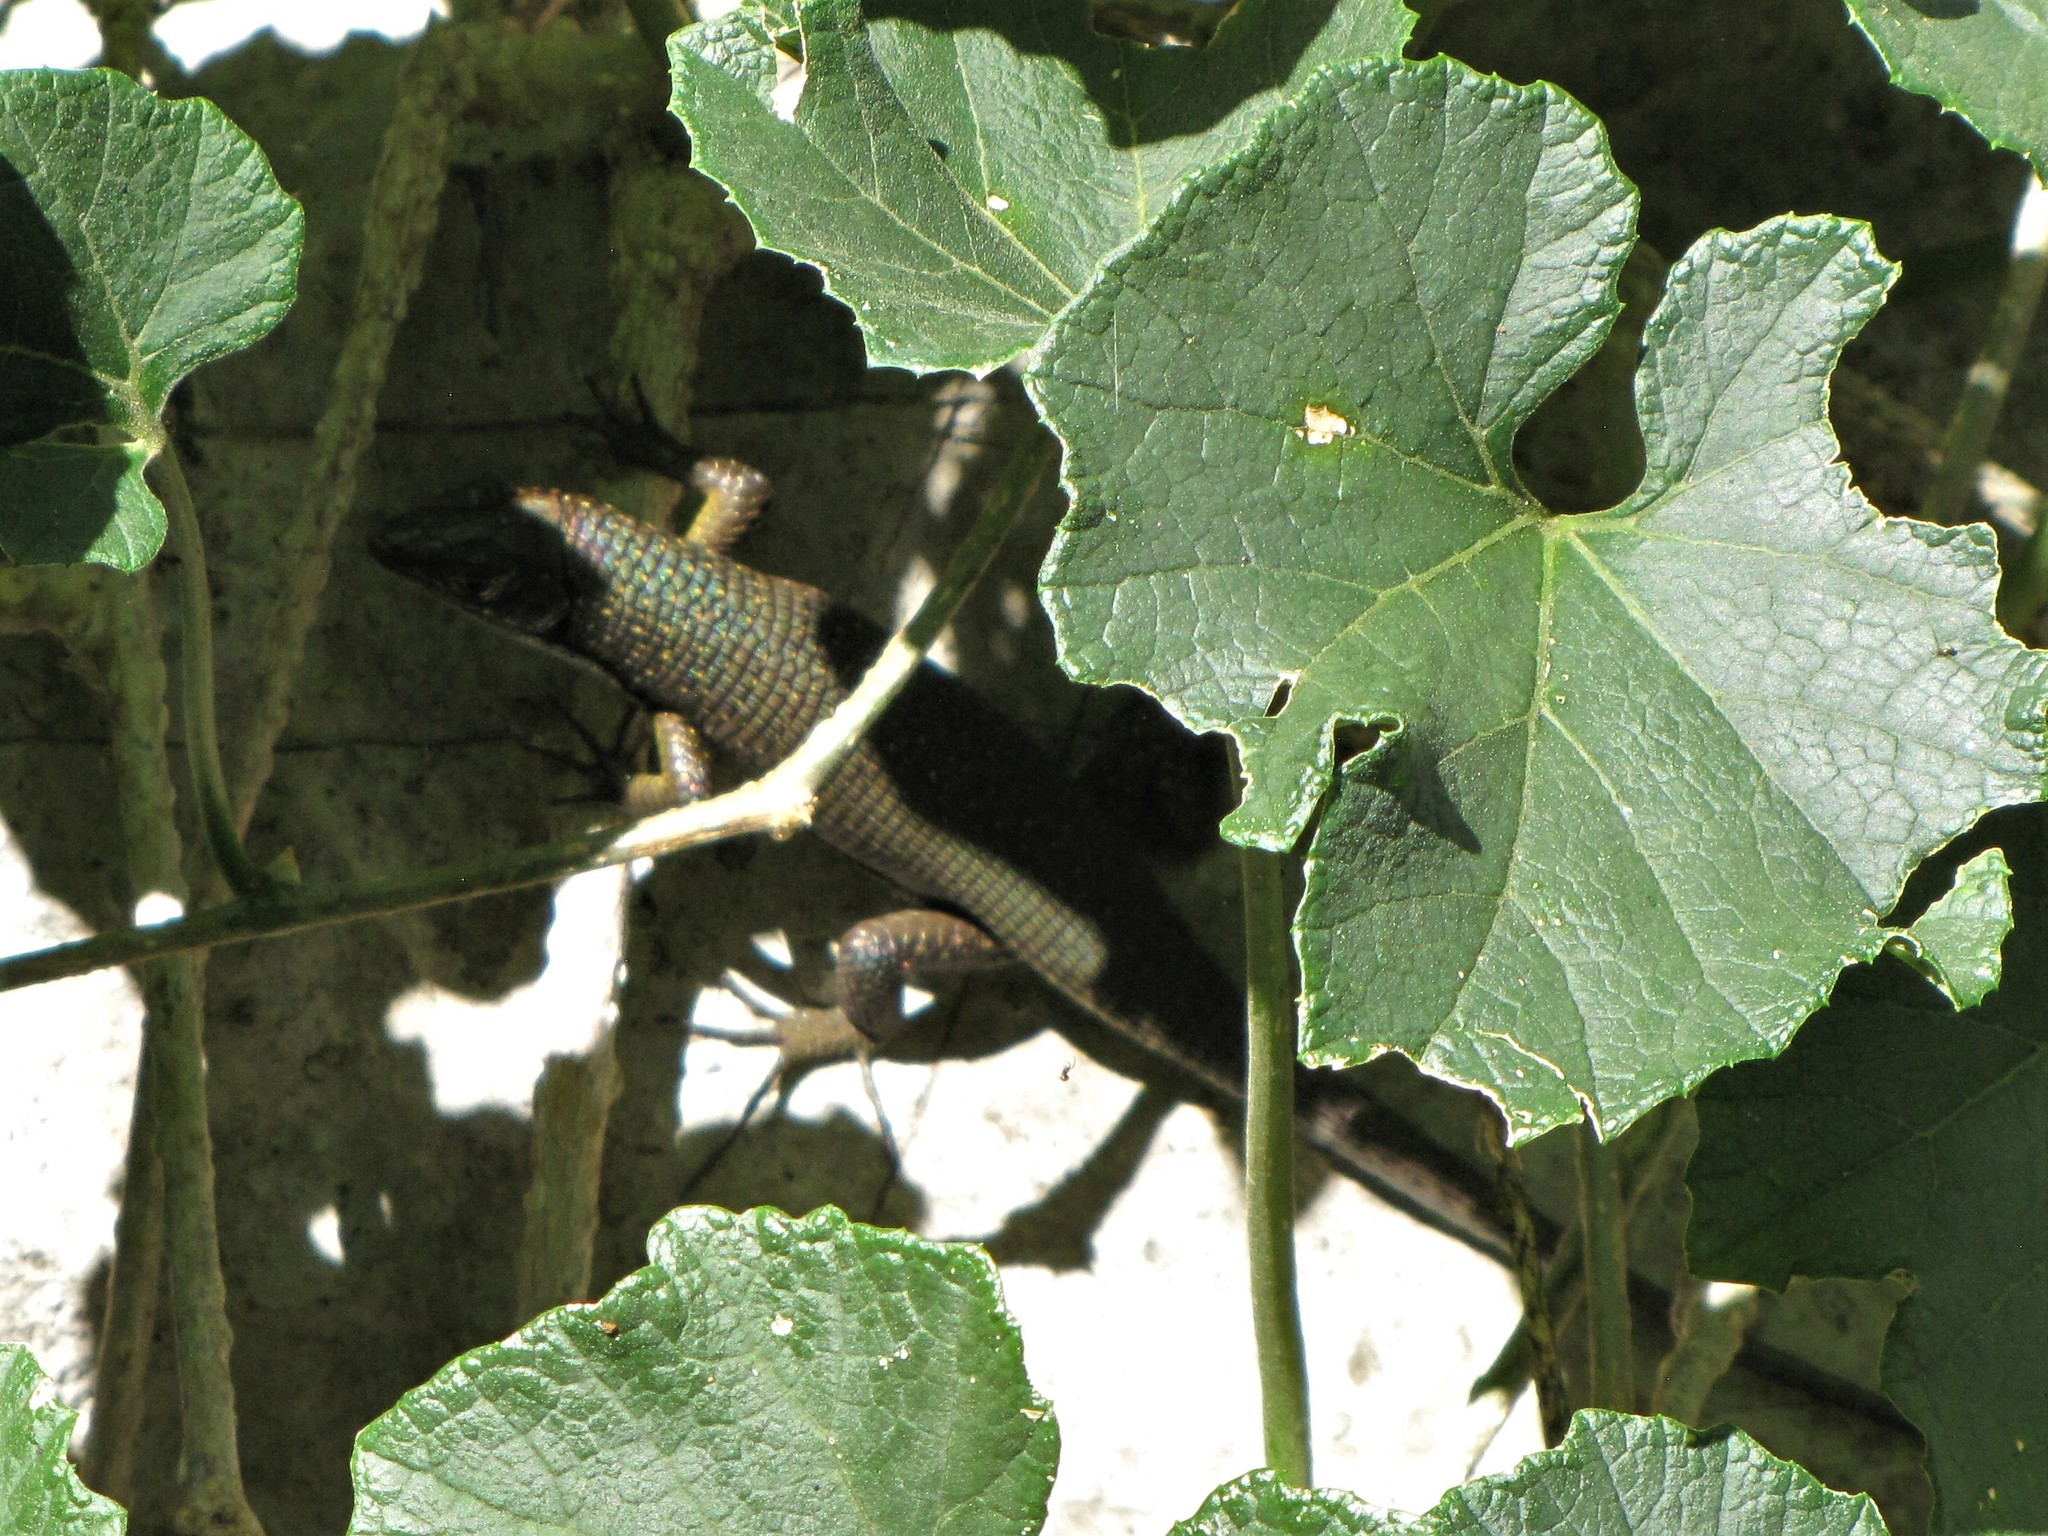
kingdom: Animalia
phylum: Chordata
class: Squamata
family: Gerrhosauridae
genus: Zonosaurus
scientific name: Zonosaurus tsingy
